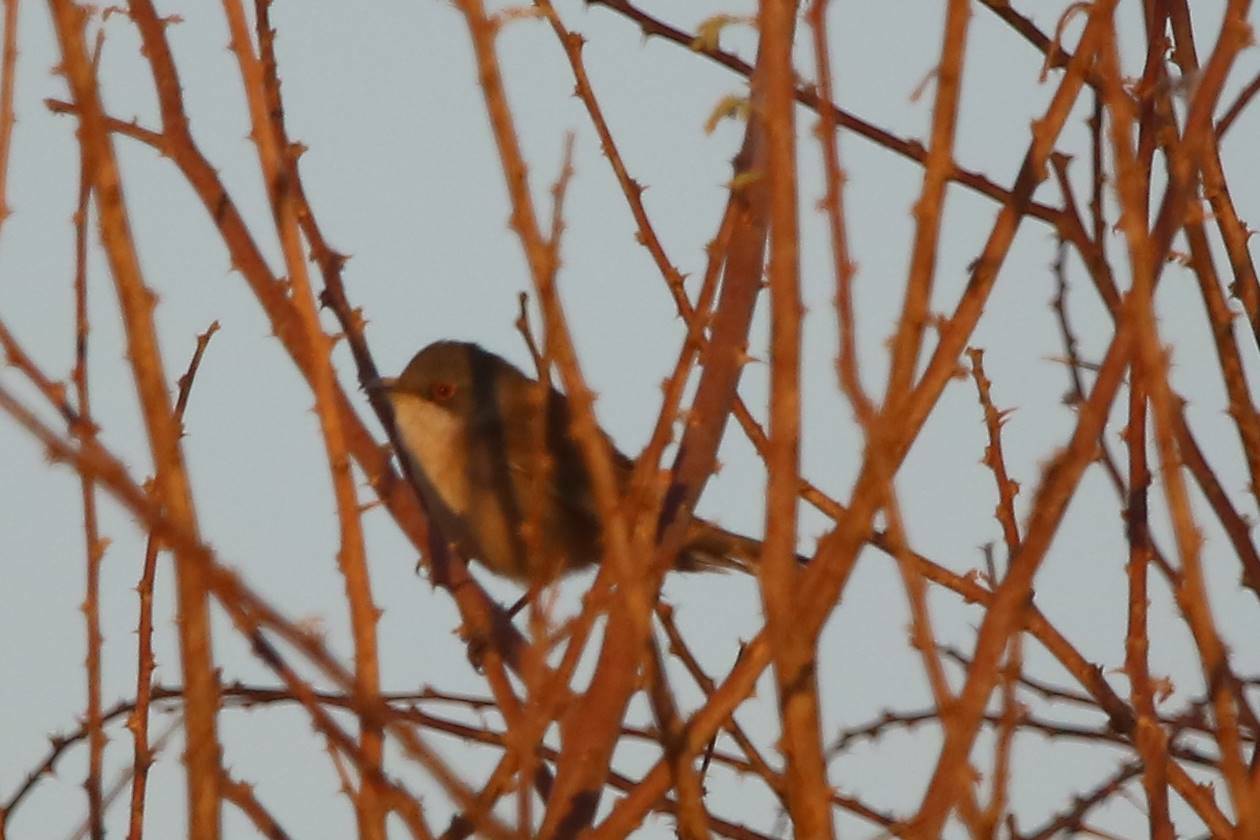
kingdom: Animalia
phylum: Chordata
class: Aves
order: Passeriformes
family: Sylviidae
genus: Curruca
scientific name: Curruca melanocephala
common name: Sardinian warbler
